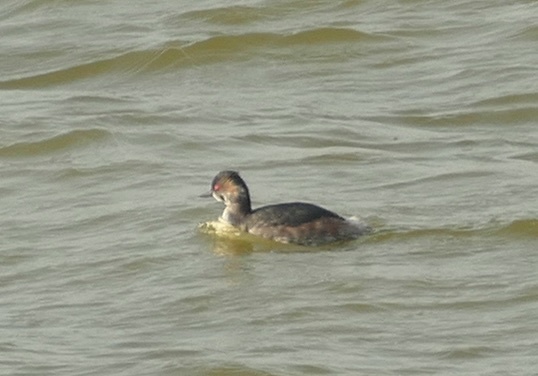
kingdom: Animalia
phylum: Chordata
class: Aves
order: Podicipediformes
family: Podicipedidae
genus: Podiceps
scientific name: Podiceps nigricollis
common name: Black-necked grebe
